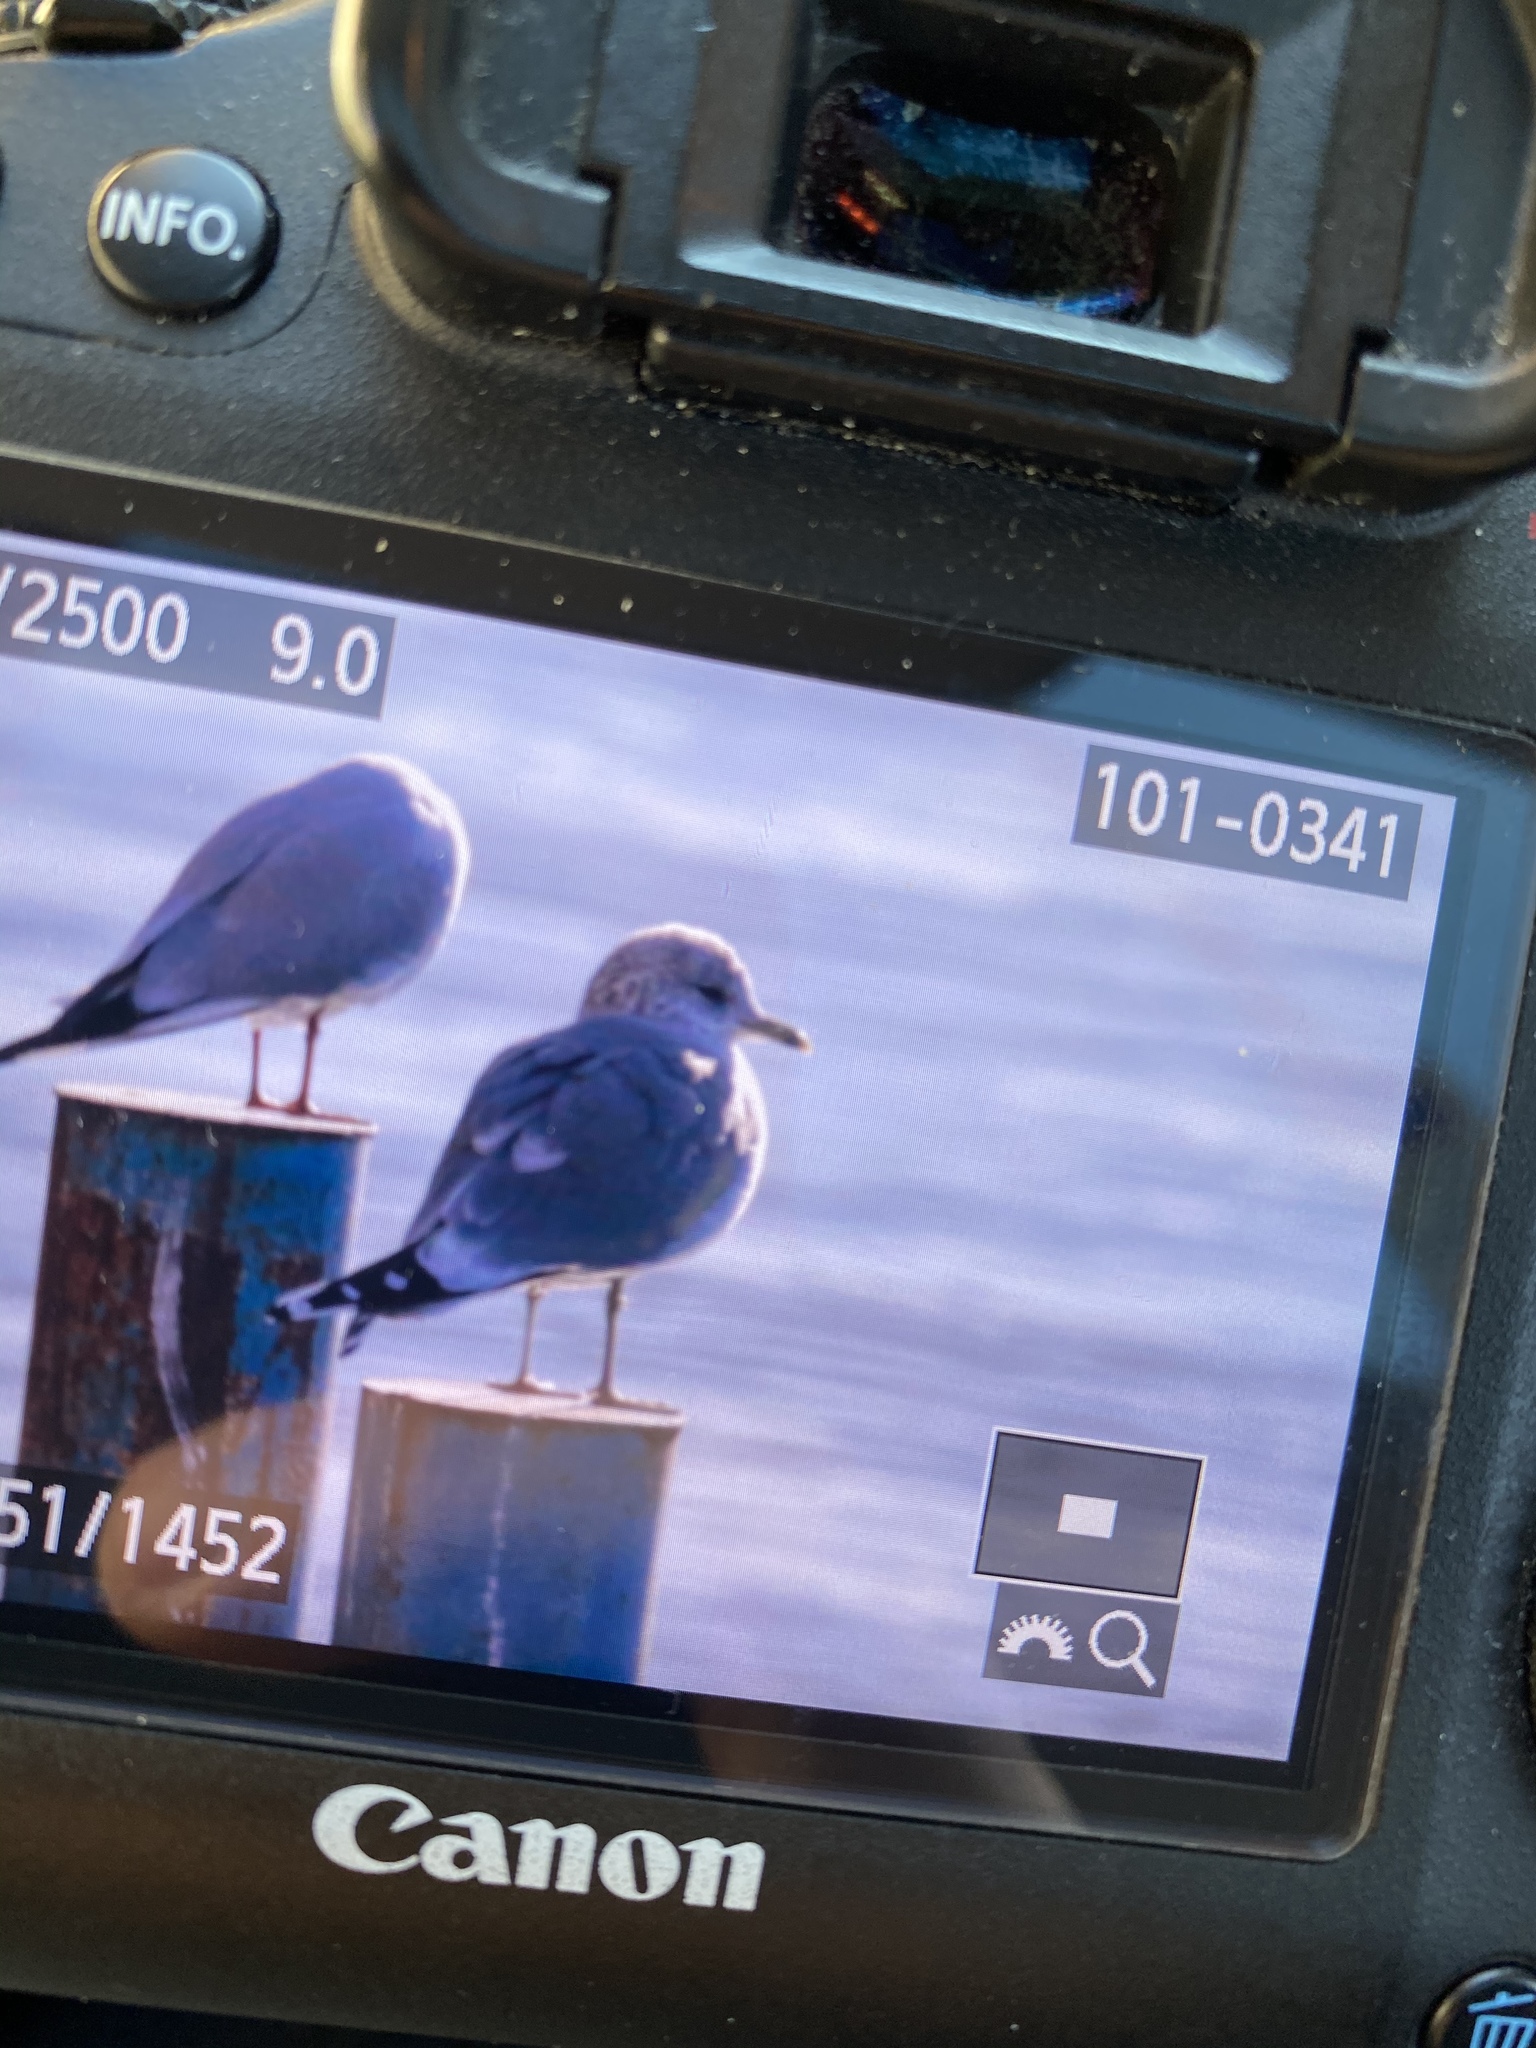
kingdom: Animalia
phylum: Chordata
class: Aves
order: Charadriiformes
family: Laridae
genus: Larus
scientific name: Larus canus
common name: Mew gull
